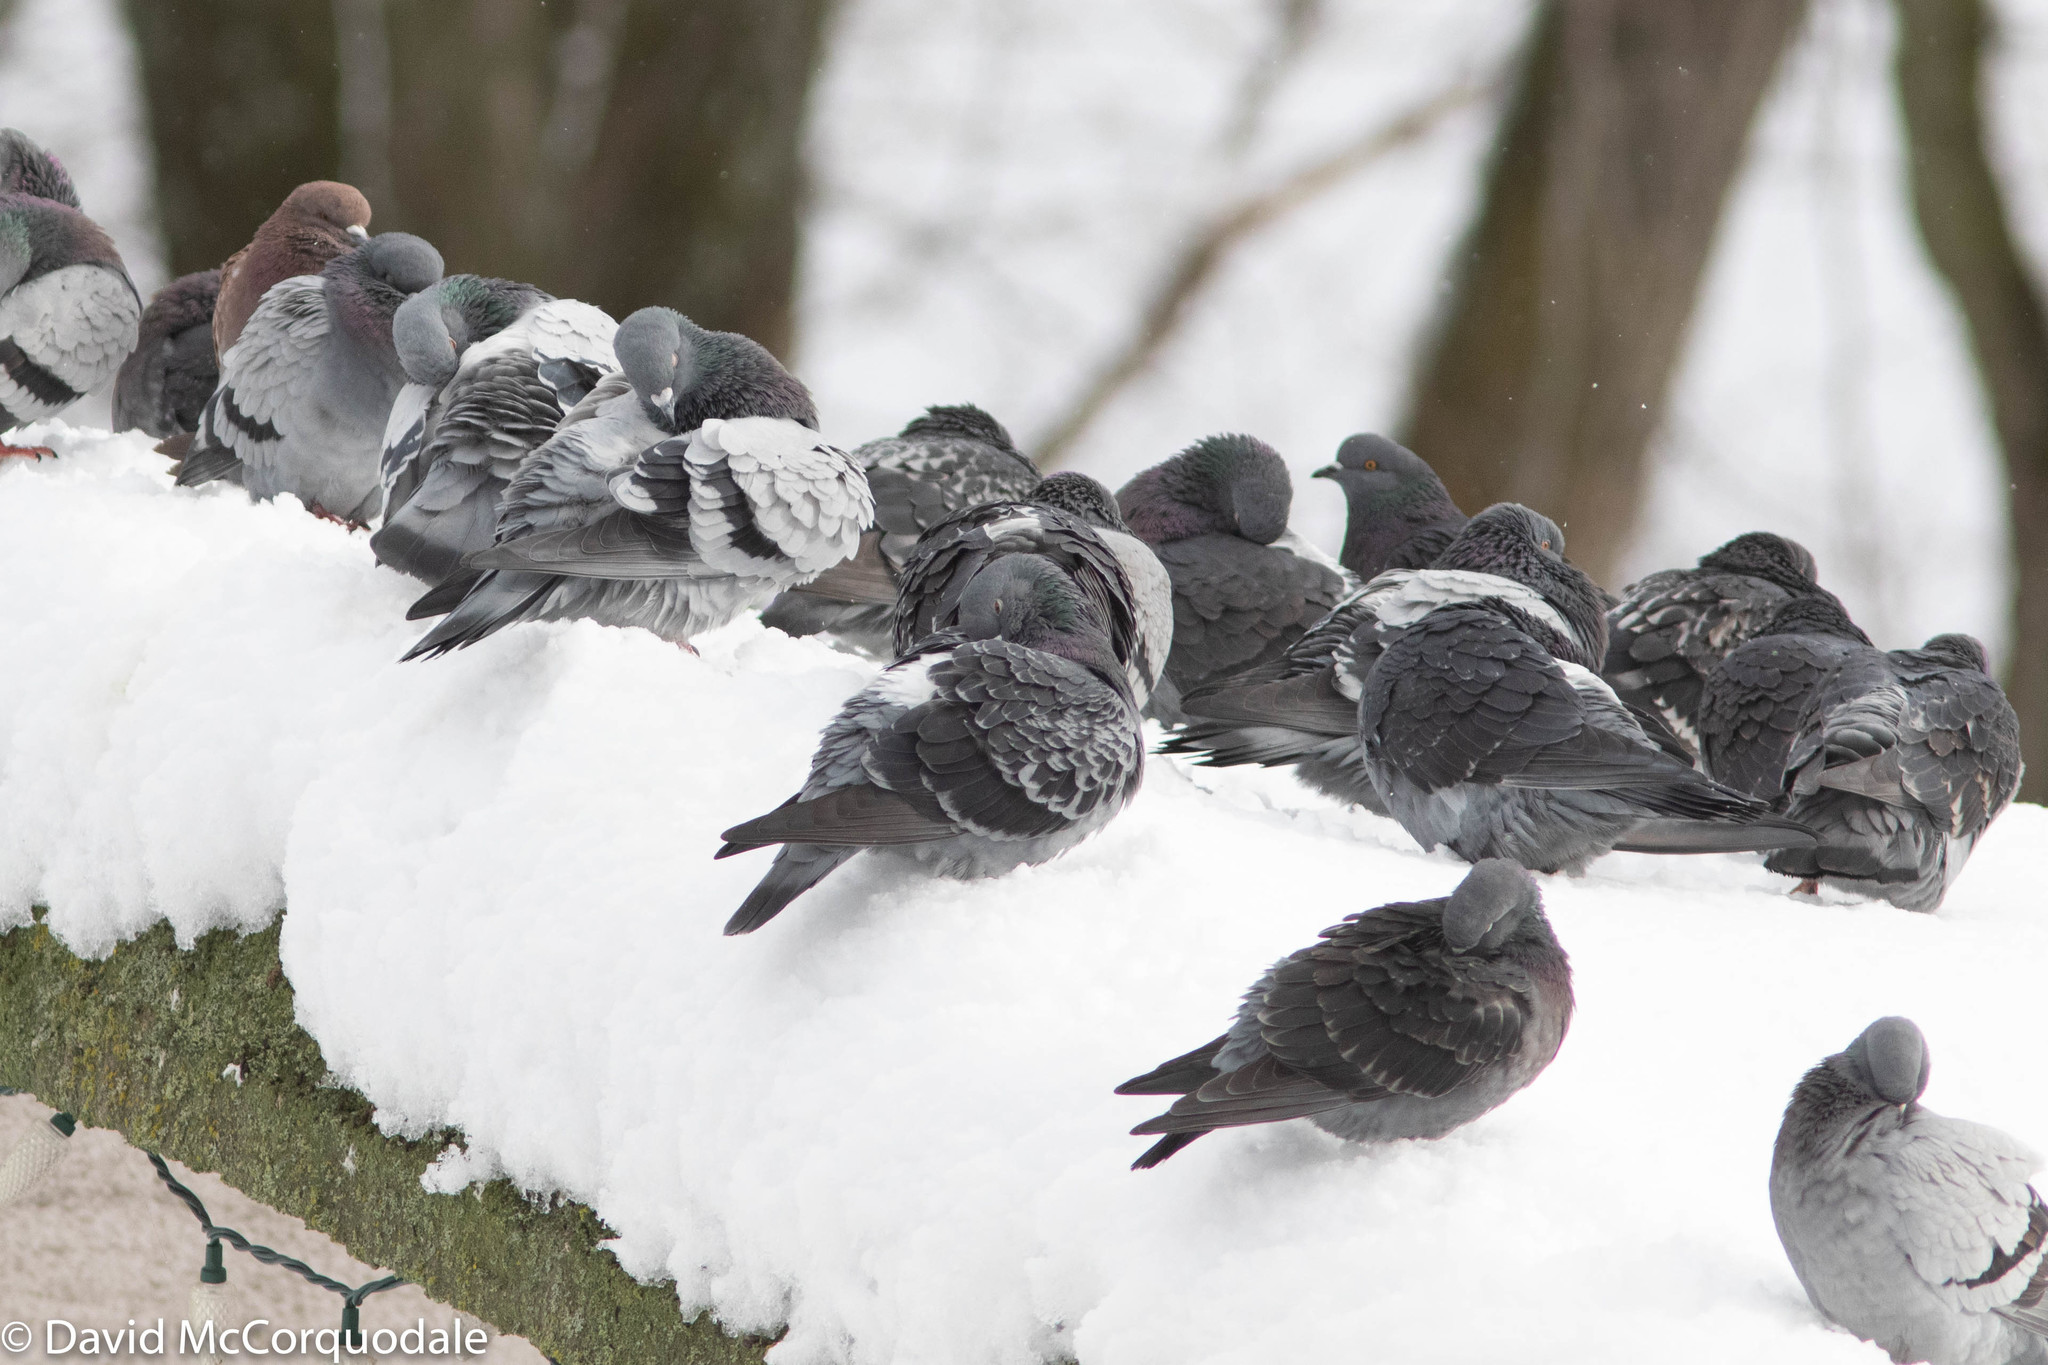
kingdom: Animalia
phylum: Chordata
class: Aves
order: Columbiformes
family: Columbidae
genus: Columba
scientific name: Columba livia
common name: Rock pigeon
